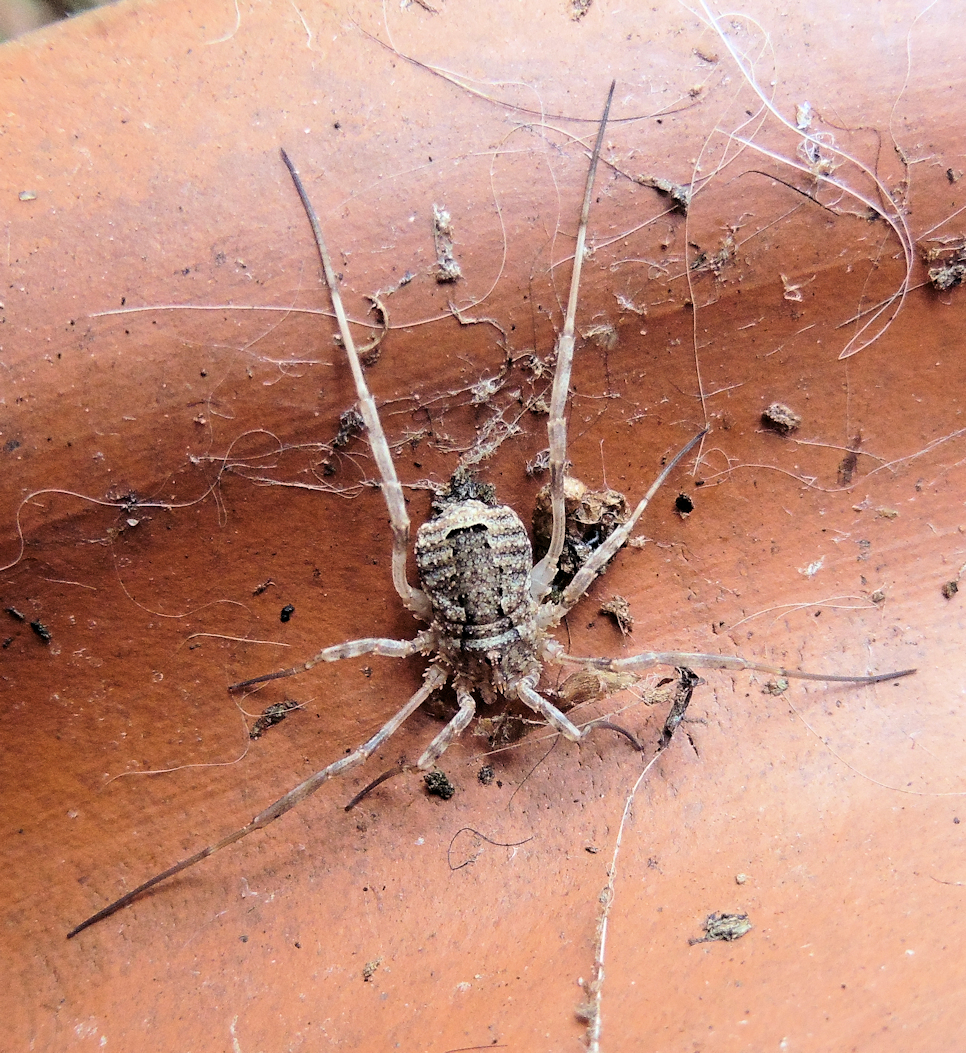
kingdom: Animalia
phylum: Arthropoda
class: Arachnida
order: Opiliones
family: Phalangiidae
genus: Odiellus
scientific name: Odiellus spinosus
